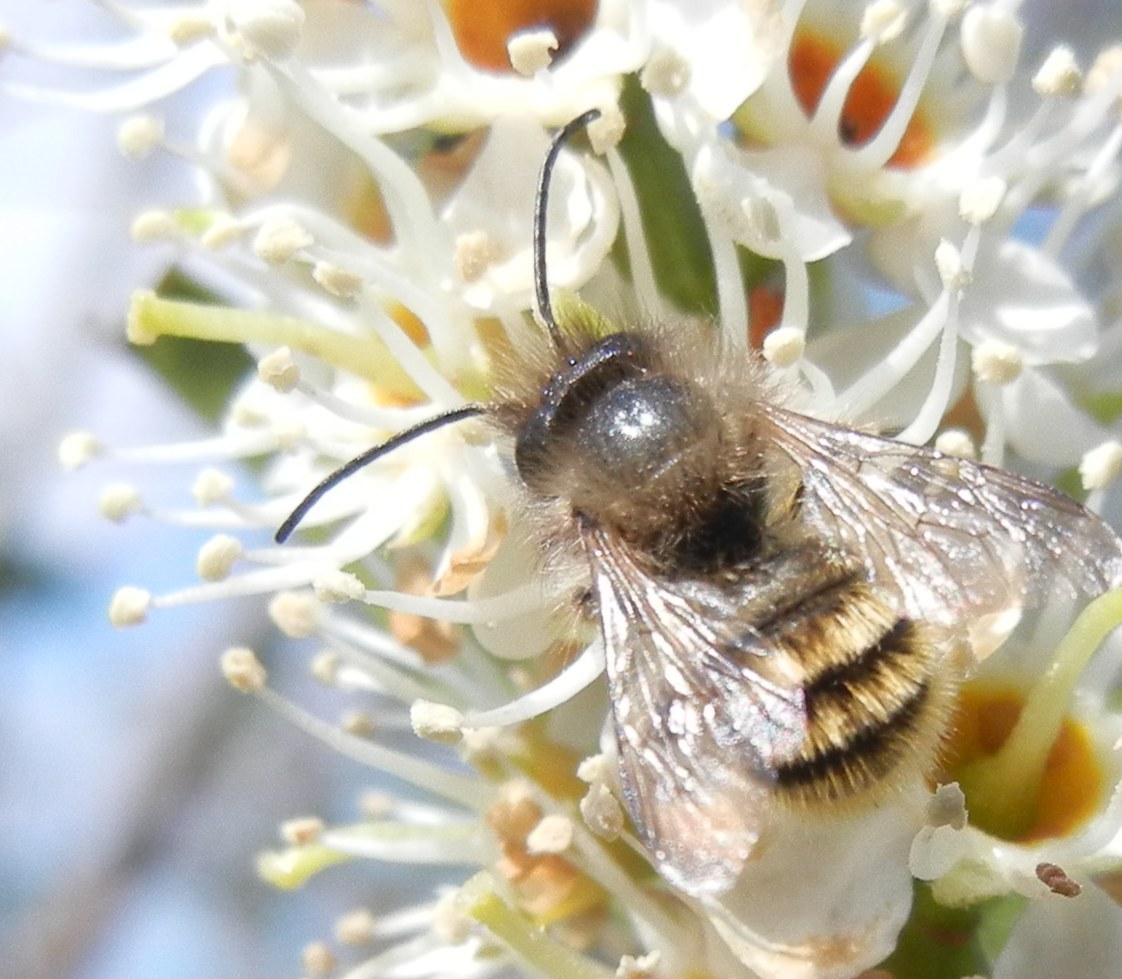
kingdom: Animalia
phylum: Arthropoda
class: Insecta
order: Hymenoptera
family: Megachilidae
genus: Osmia
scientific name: Osmia bicornis
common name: Red mason bee
